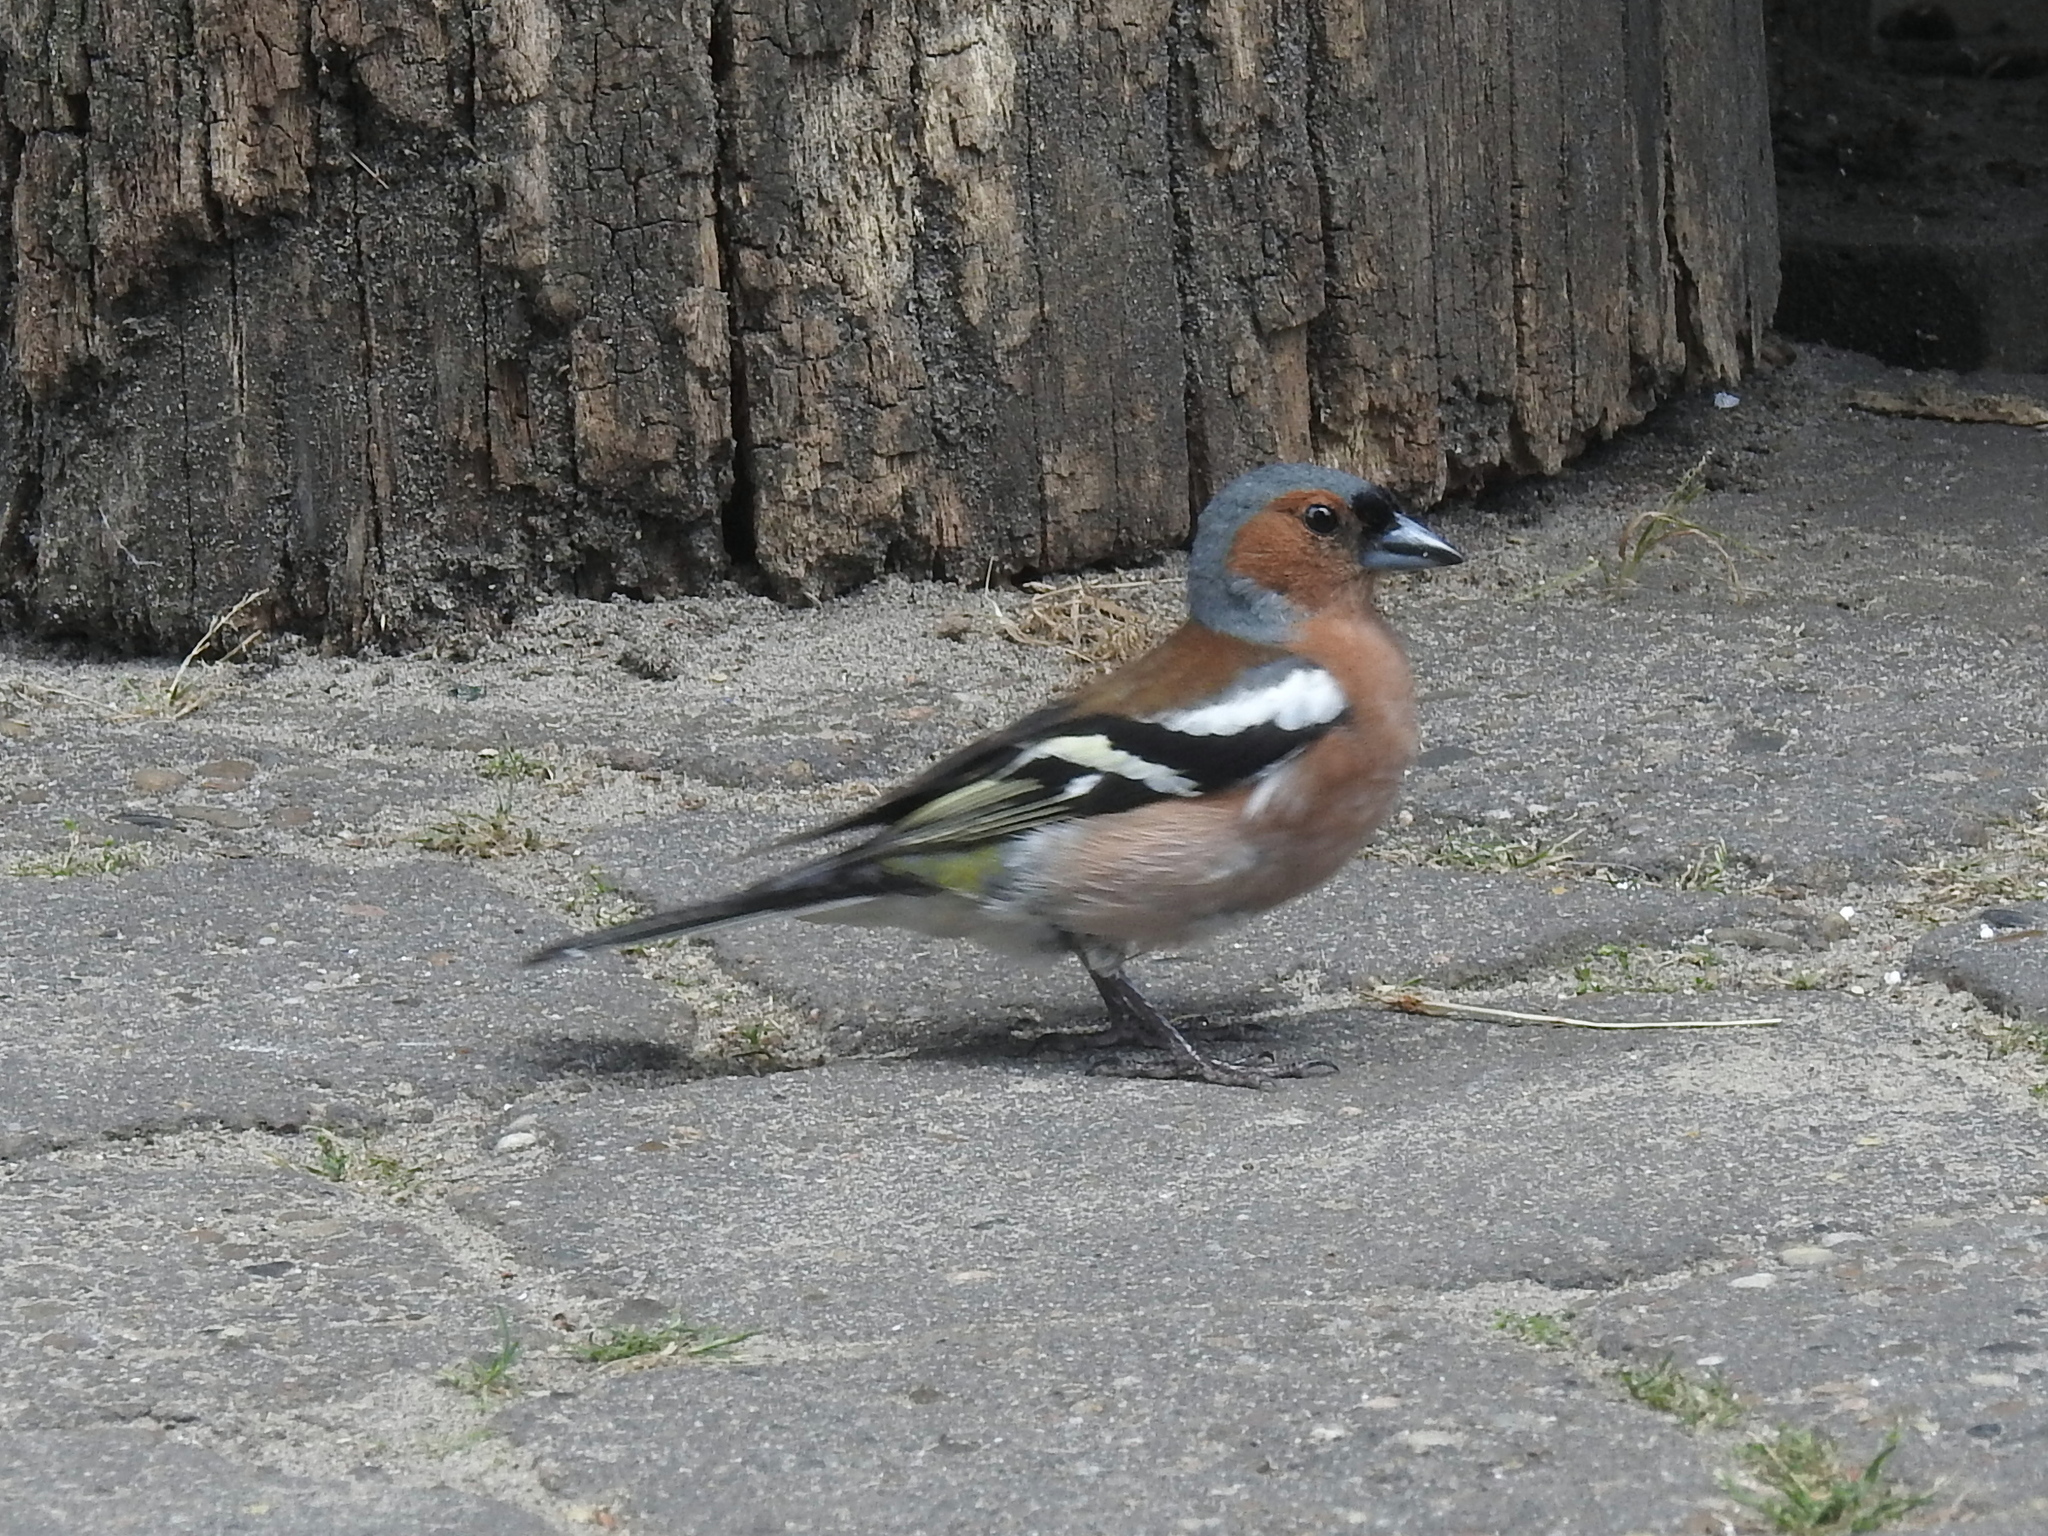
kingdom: Animalia
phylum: Chordata
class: Aves
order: Passeriformes
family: Fringillidae
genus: Fringilla
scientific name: Fringilla coelebs
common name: Common chaffinch
